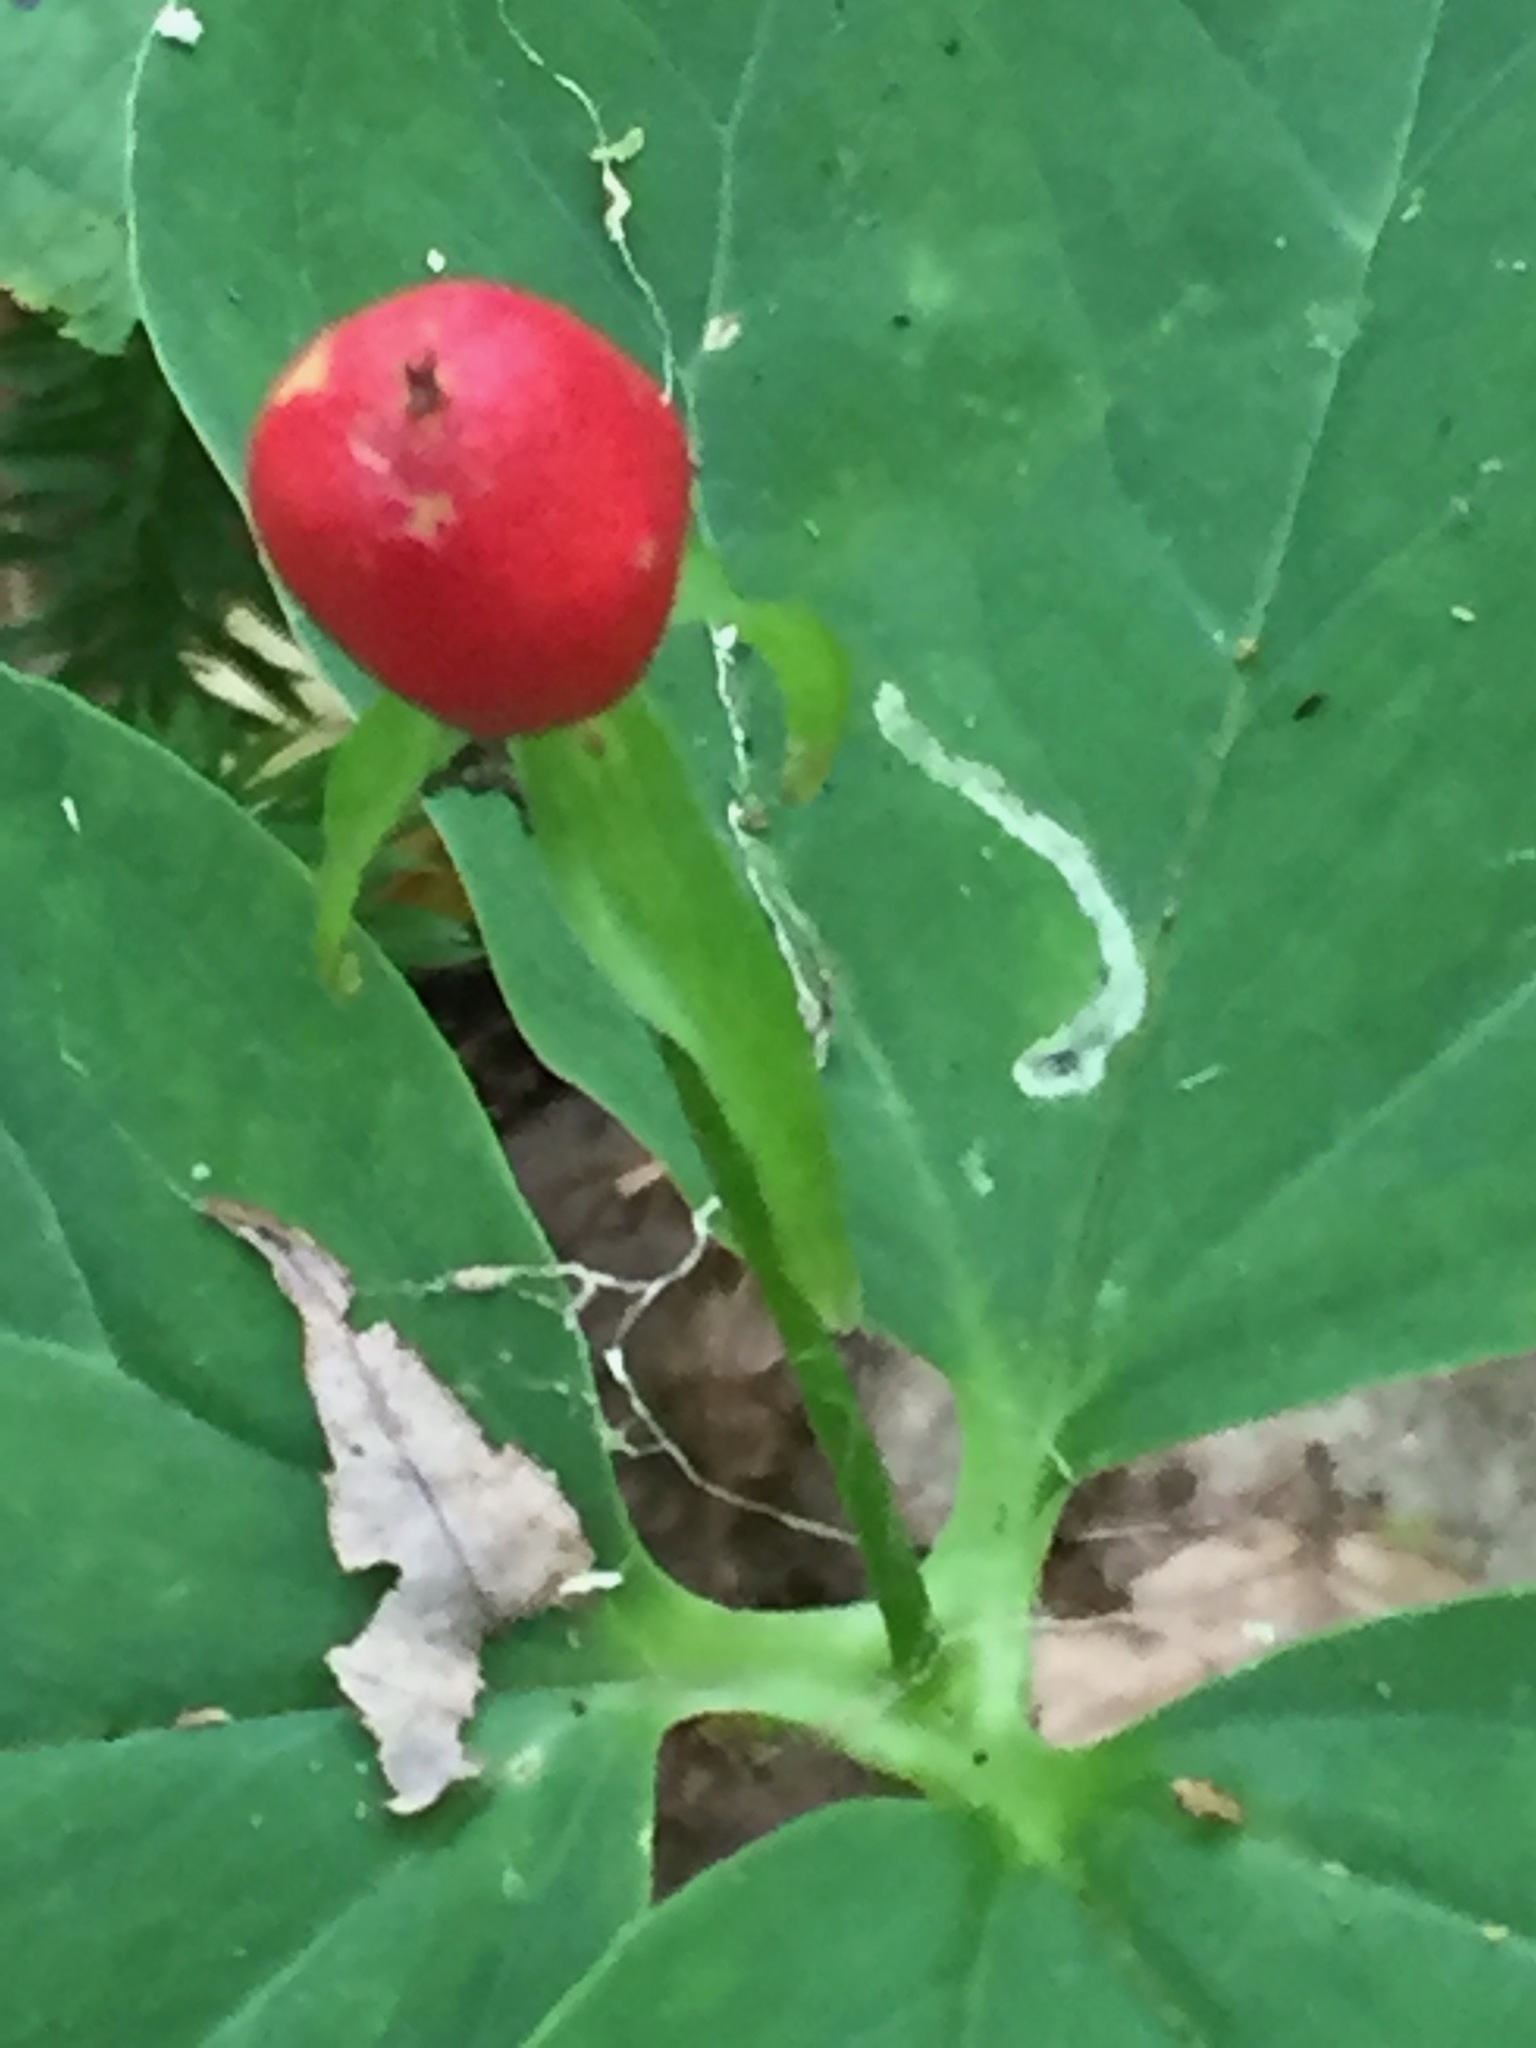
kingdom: Plantae
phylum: Tracheophyta
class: Liliopsida
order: Liliales
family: Melanthiaceae
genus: Trillium
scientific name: Trillium undulatum
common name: Paint trillium
